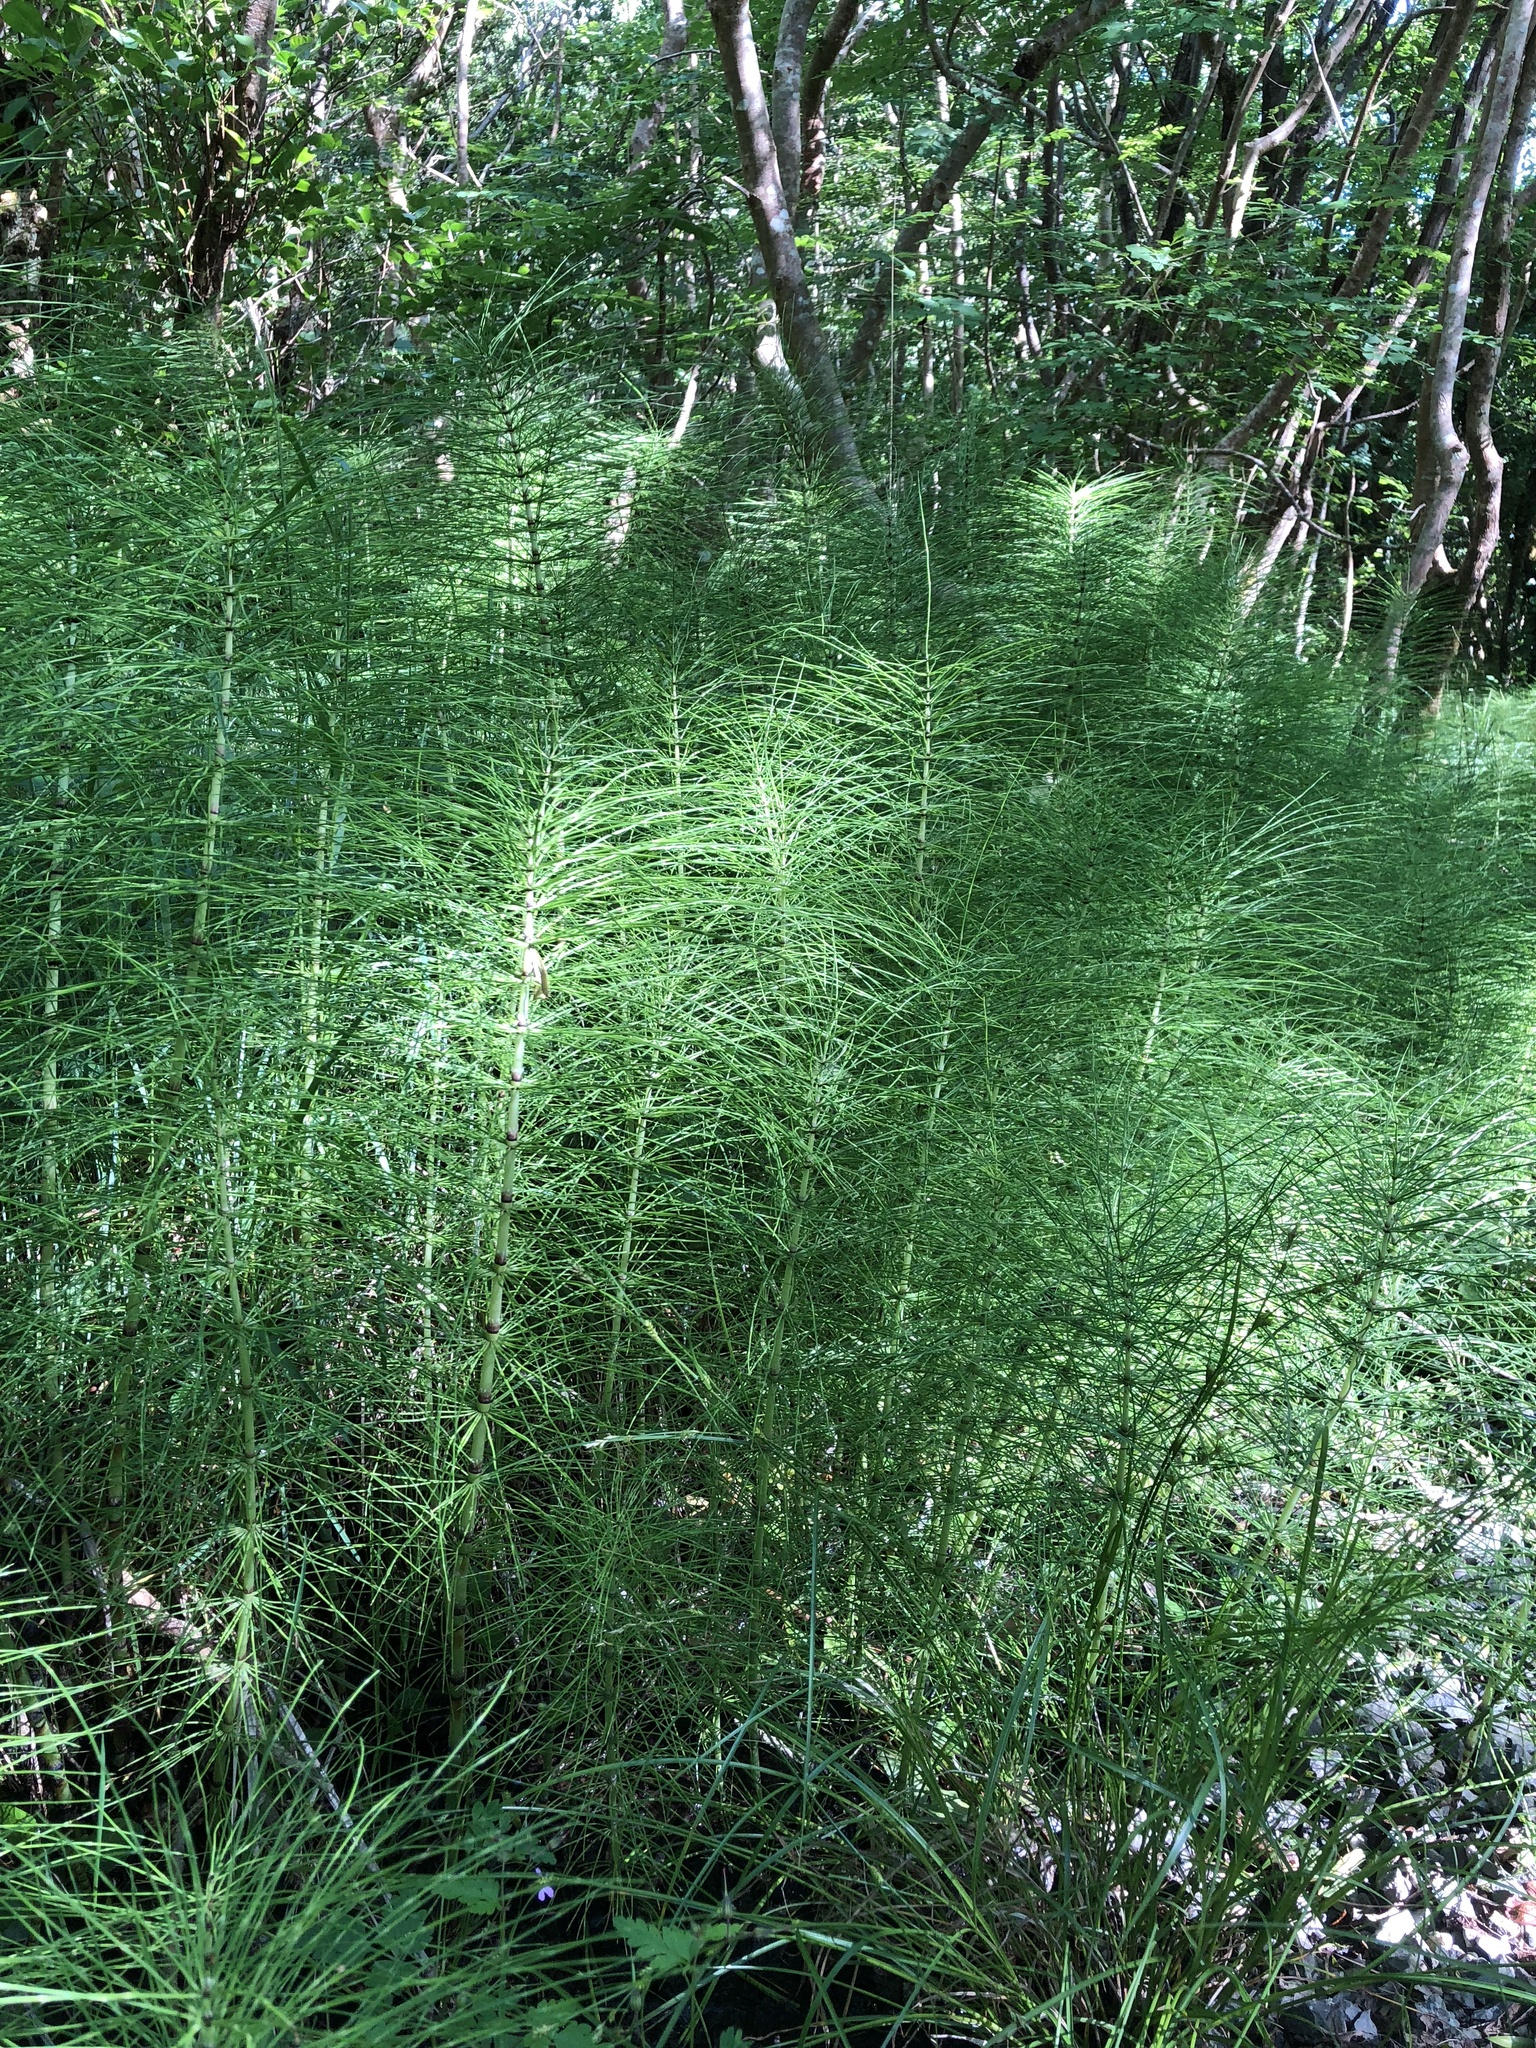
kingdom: Plantae
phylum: Tracheophyta
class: Polypodiopsida
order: Equisetales
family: Equisetaceae
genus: Equisetum
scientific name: Equisetum telmateia
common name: Great horsetail
